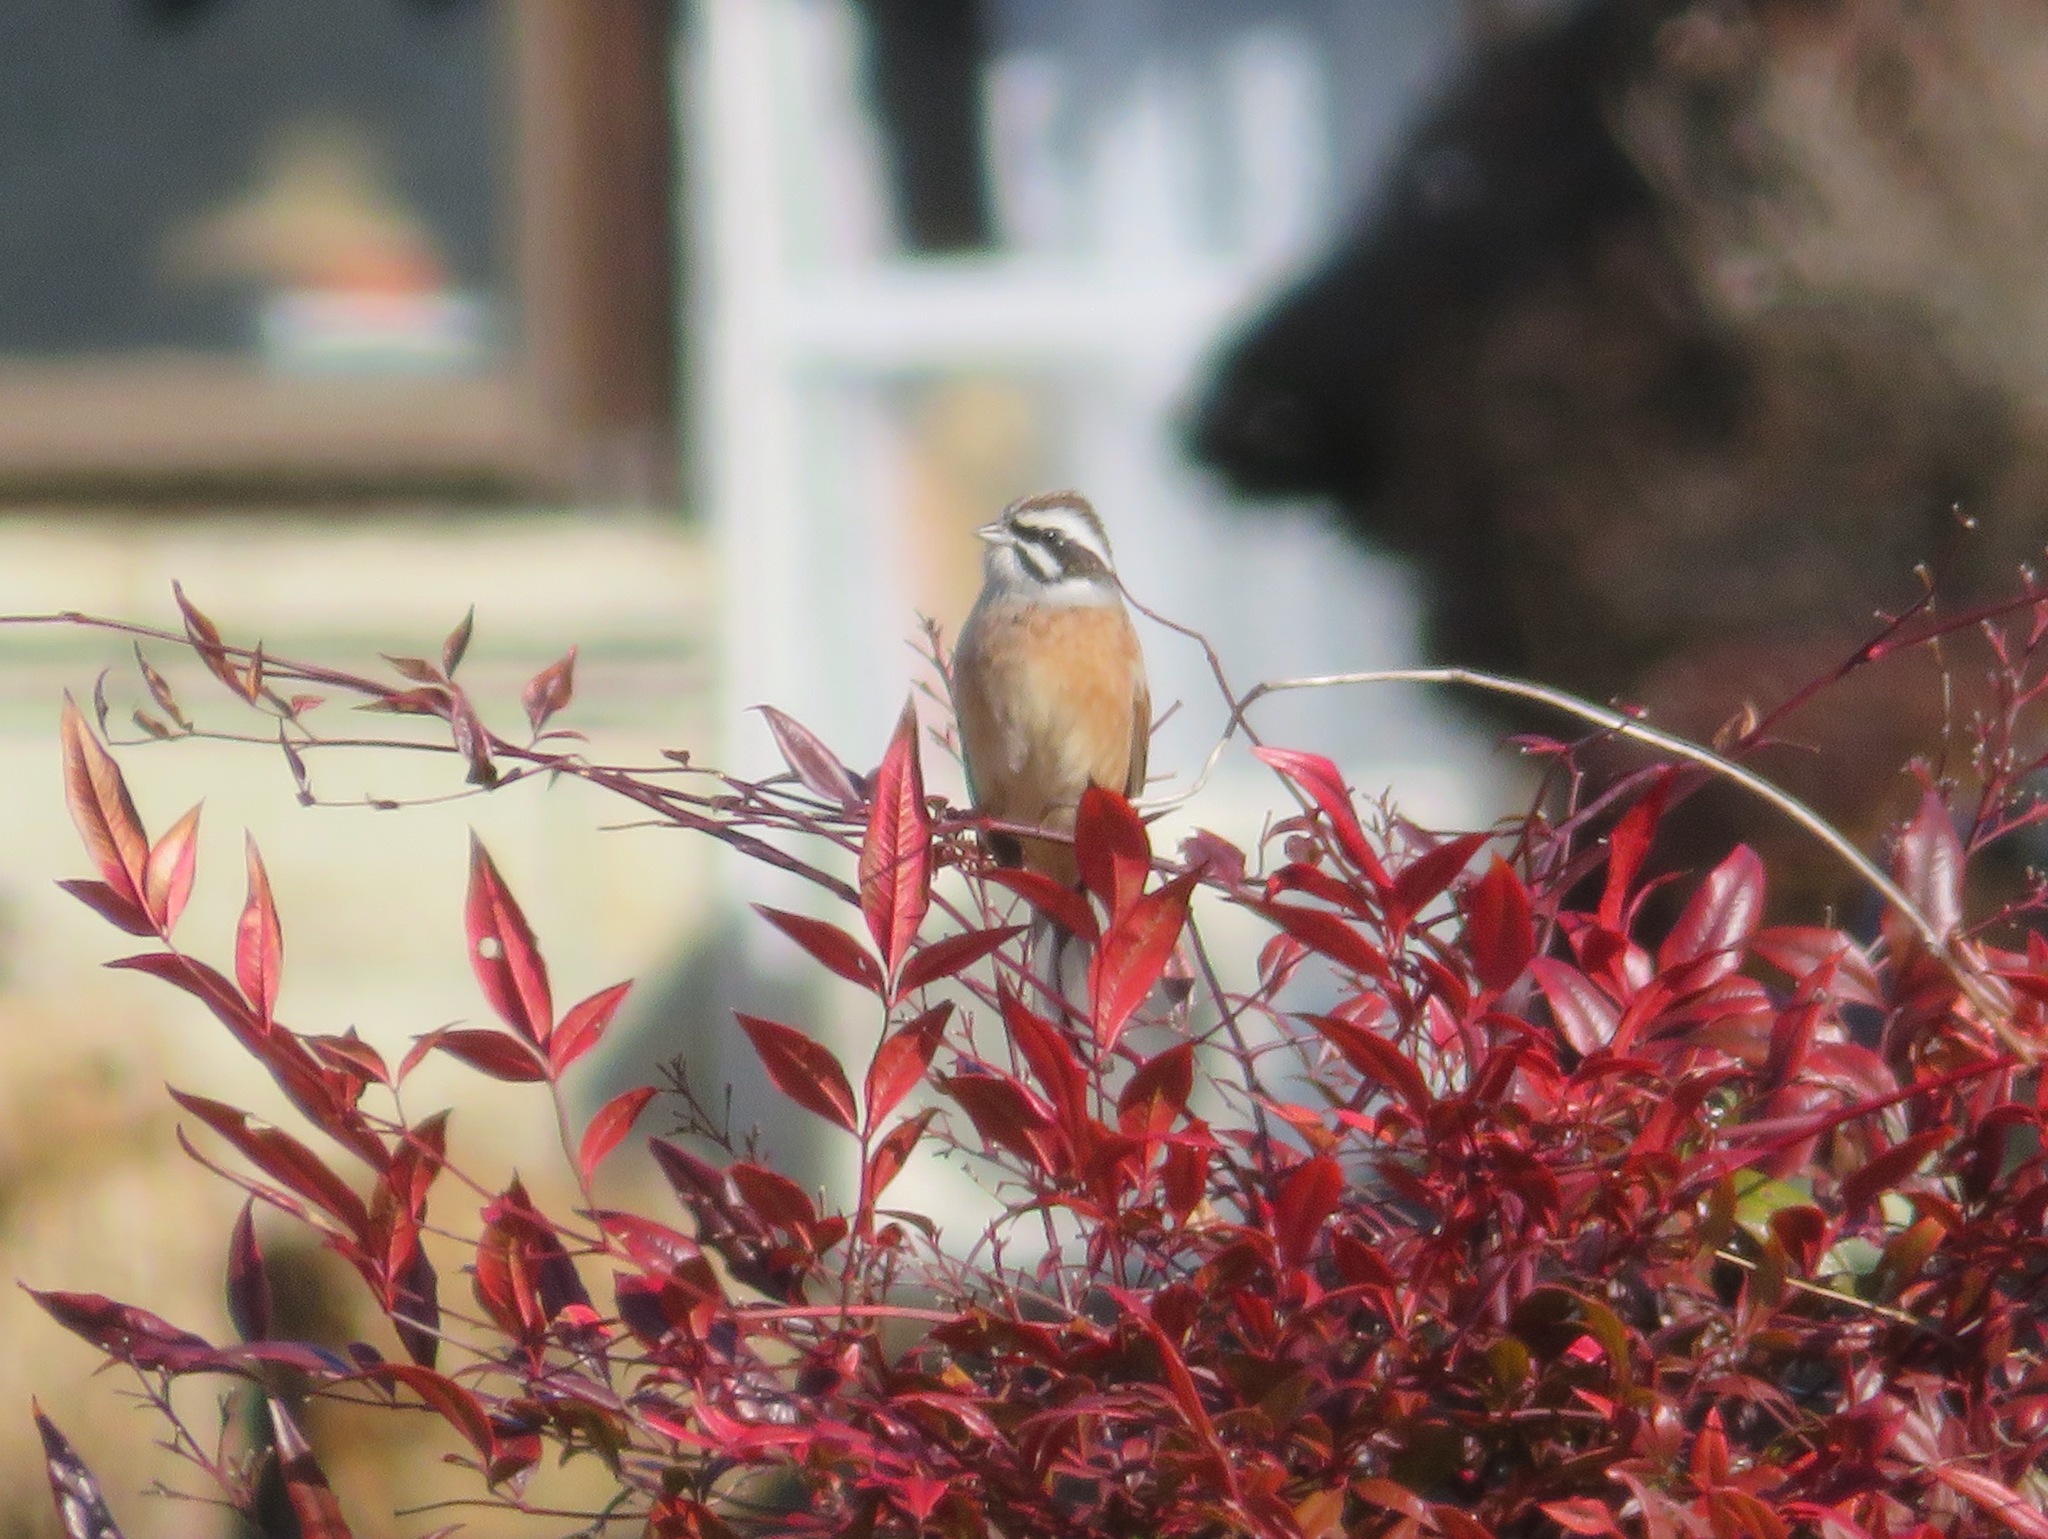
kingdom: Animalia
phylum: Chordata
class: Aves
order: Passeriformes
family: Emberizidae
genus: Emberiza
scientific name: Emberiza cioides
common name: Meadow bunting
